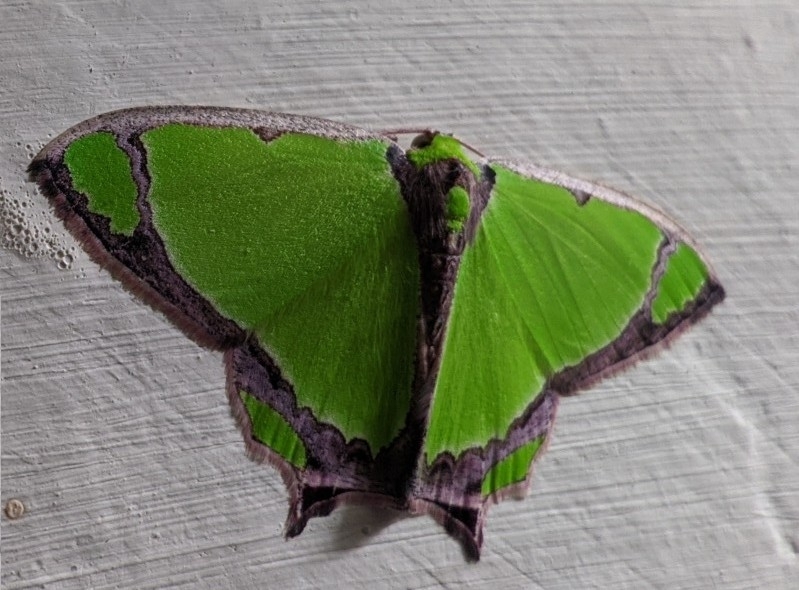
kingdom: Animalia
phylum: Arthropoda
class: Insecta
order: Lepidoptera
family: Geometridae
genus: Agathia
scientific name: Agathia laetata
